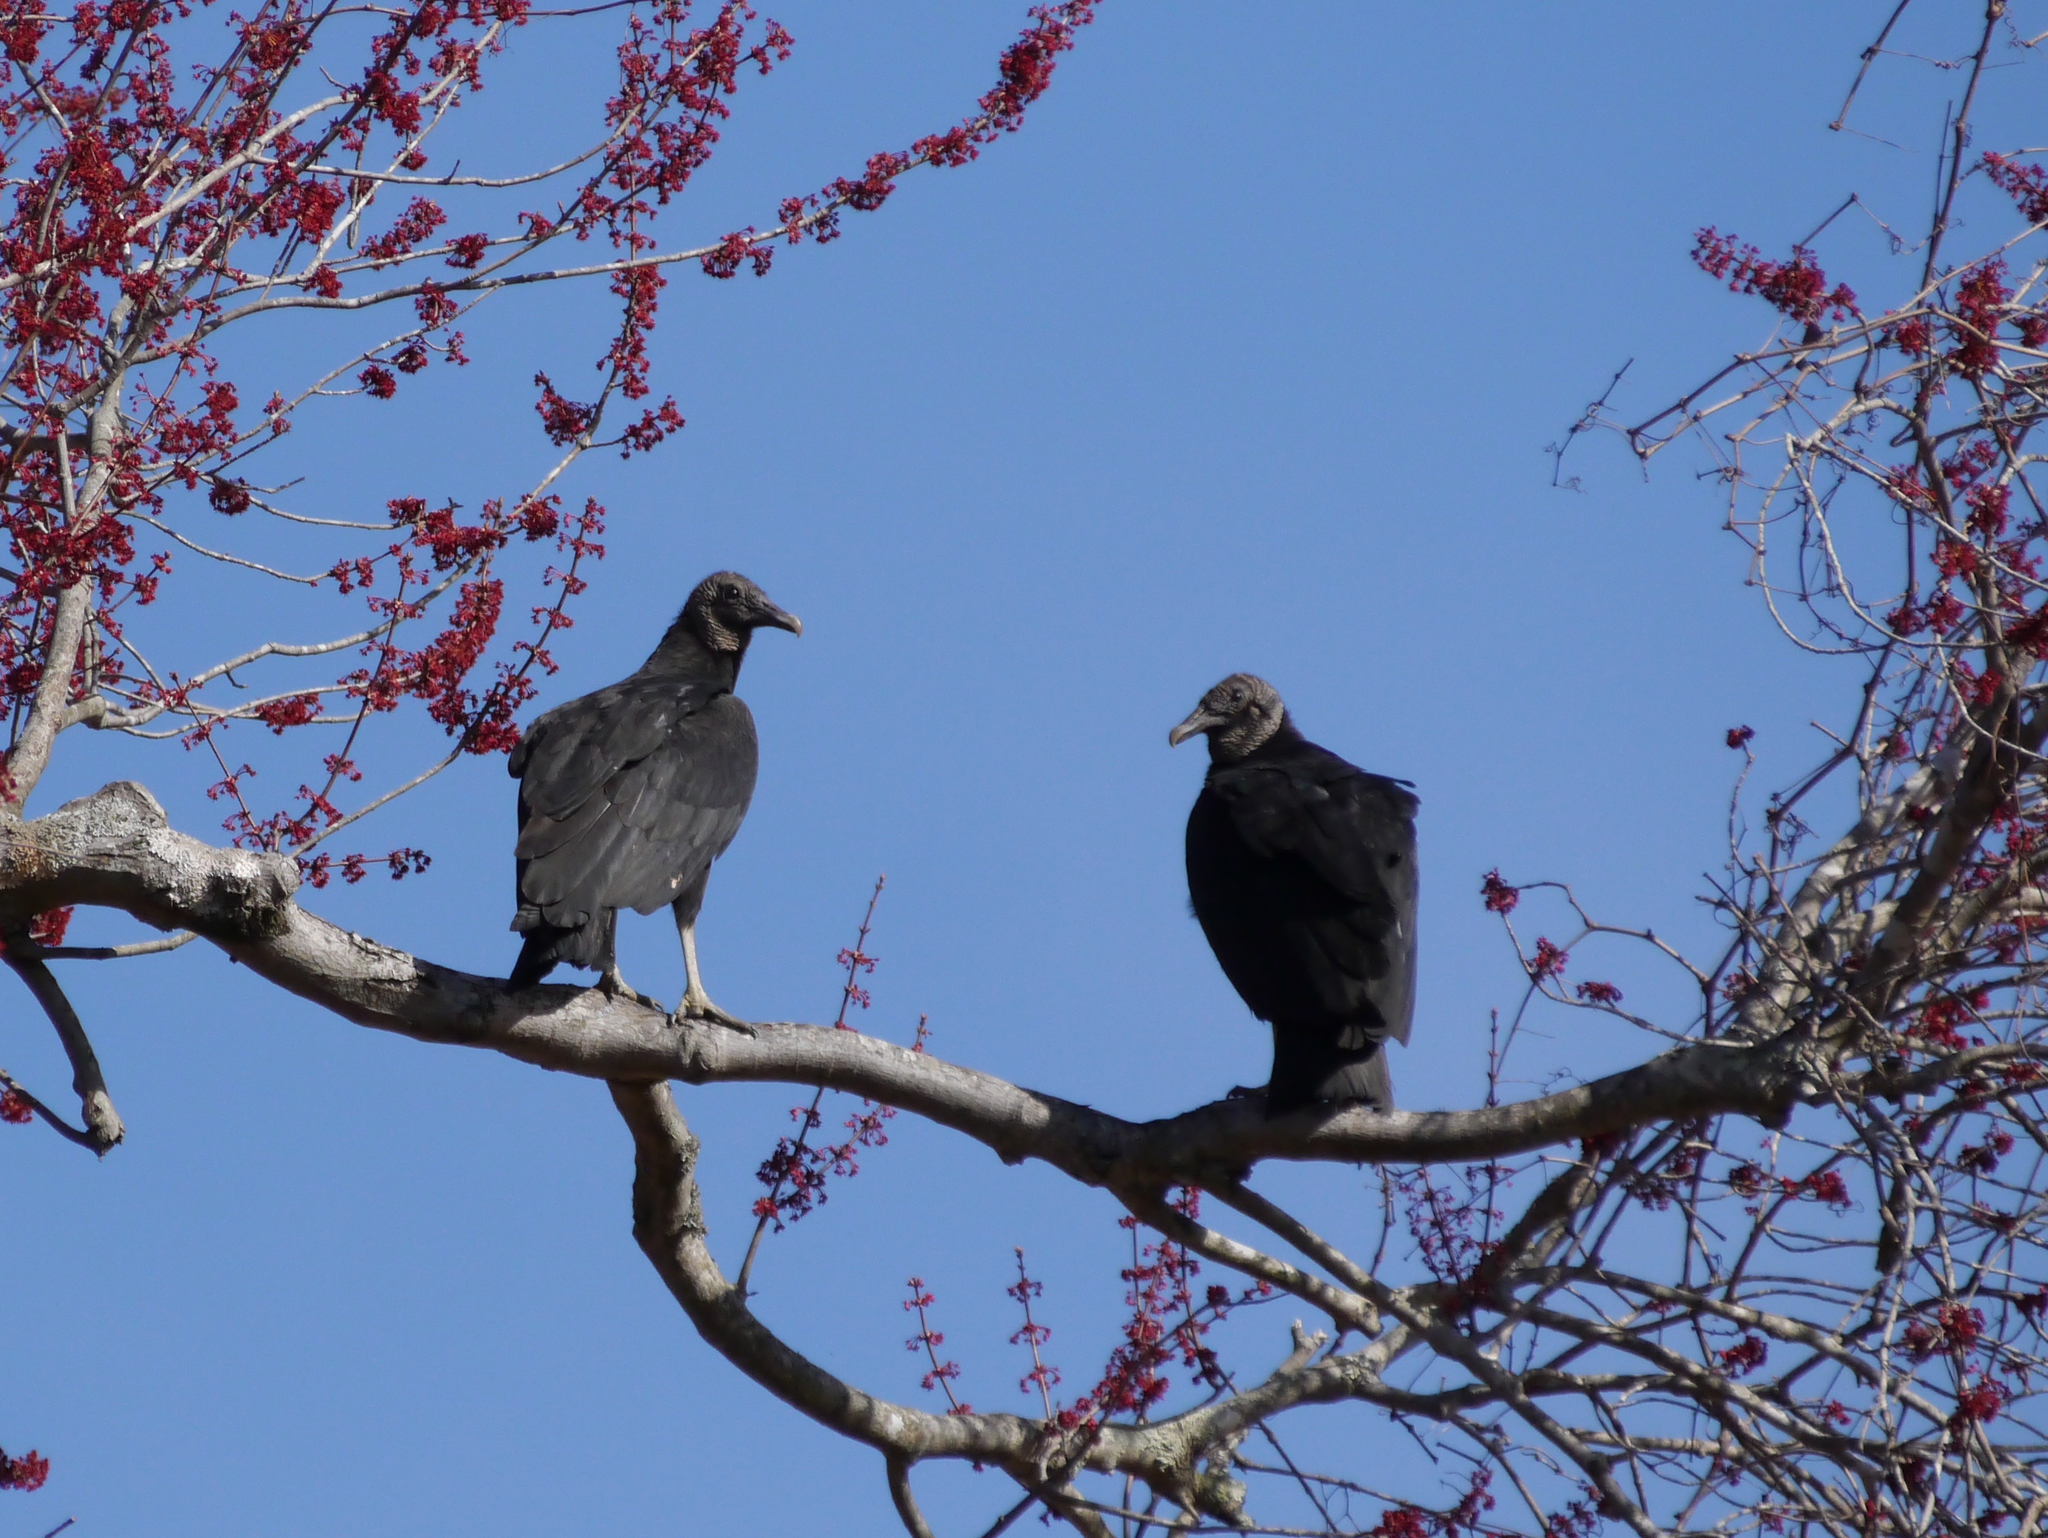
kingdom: Animalia
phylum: Chordata
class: Aves
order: Accipitriformes
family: Cathartidae
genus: Coragyps
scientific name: Coragyps atratus
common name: Black vulture
